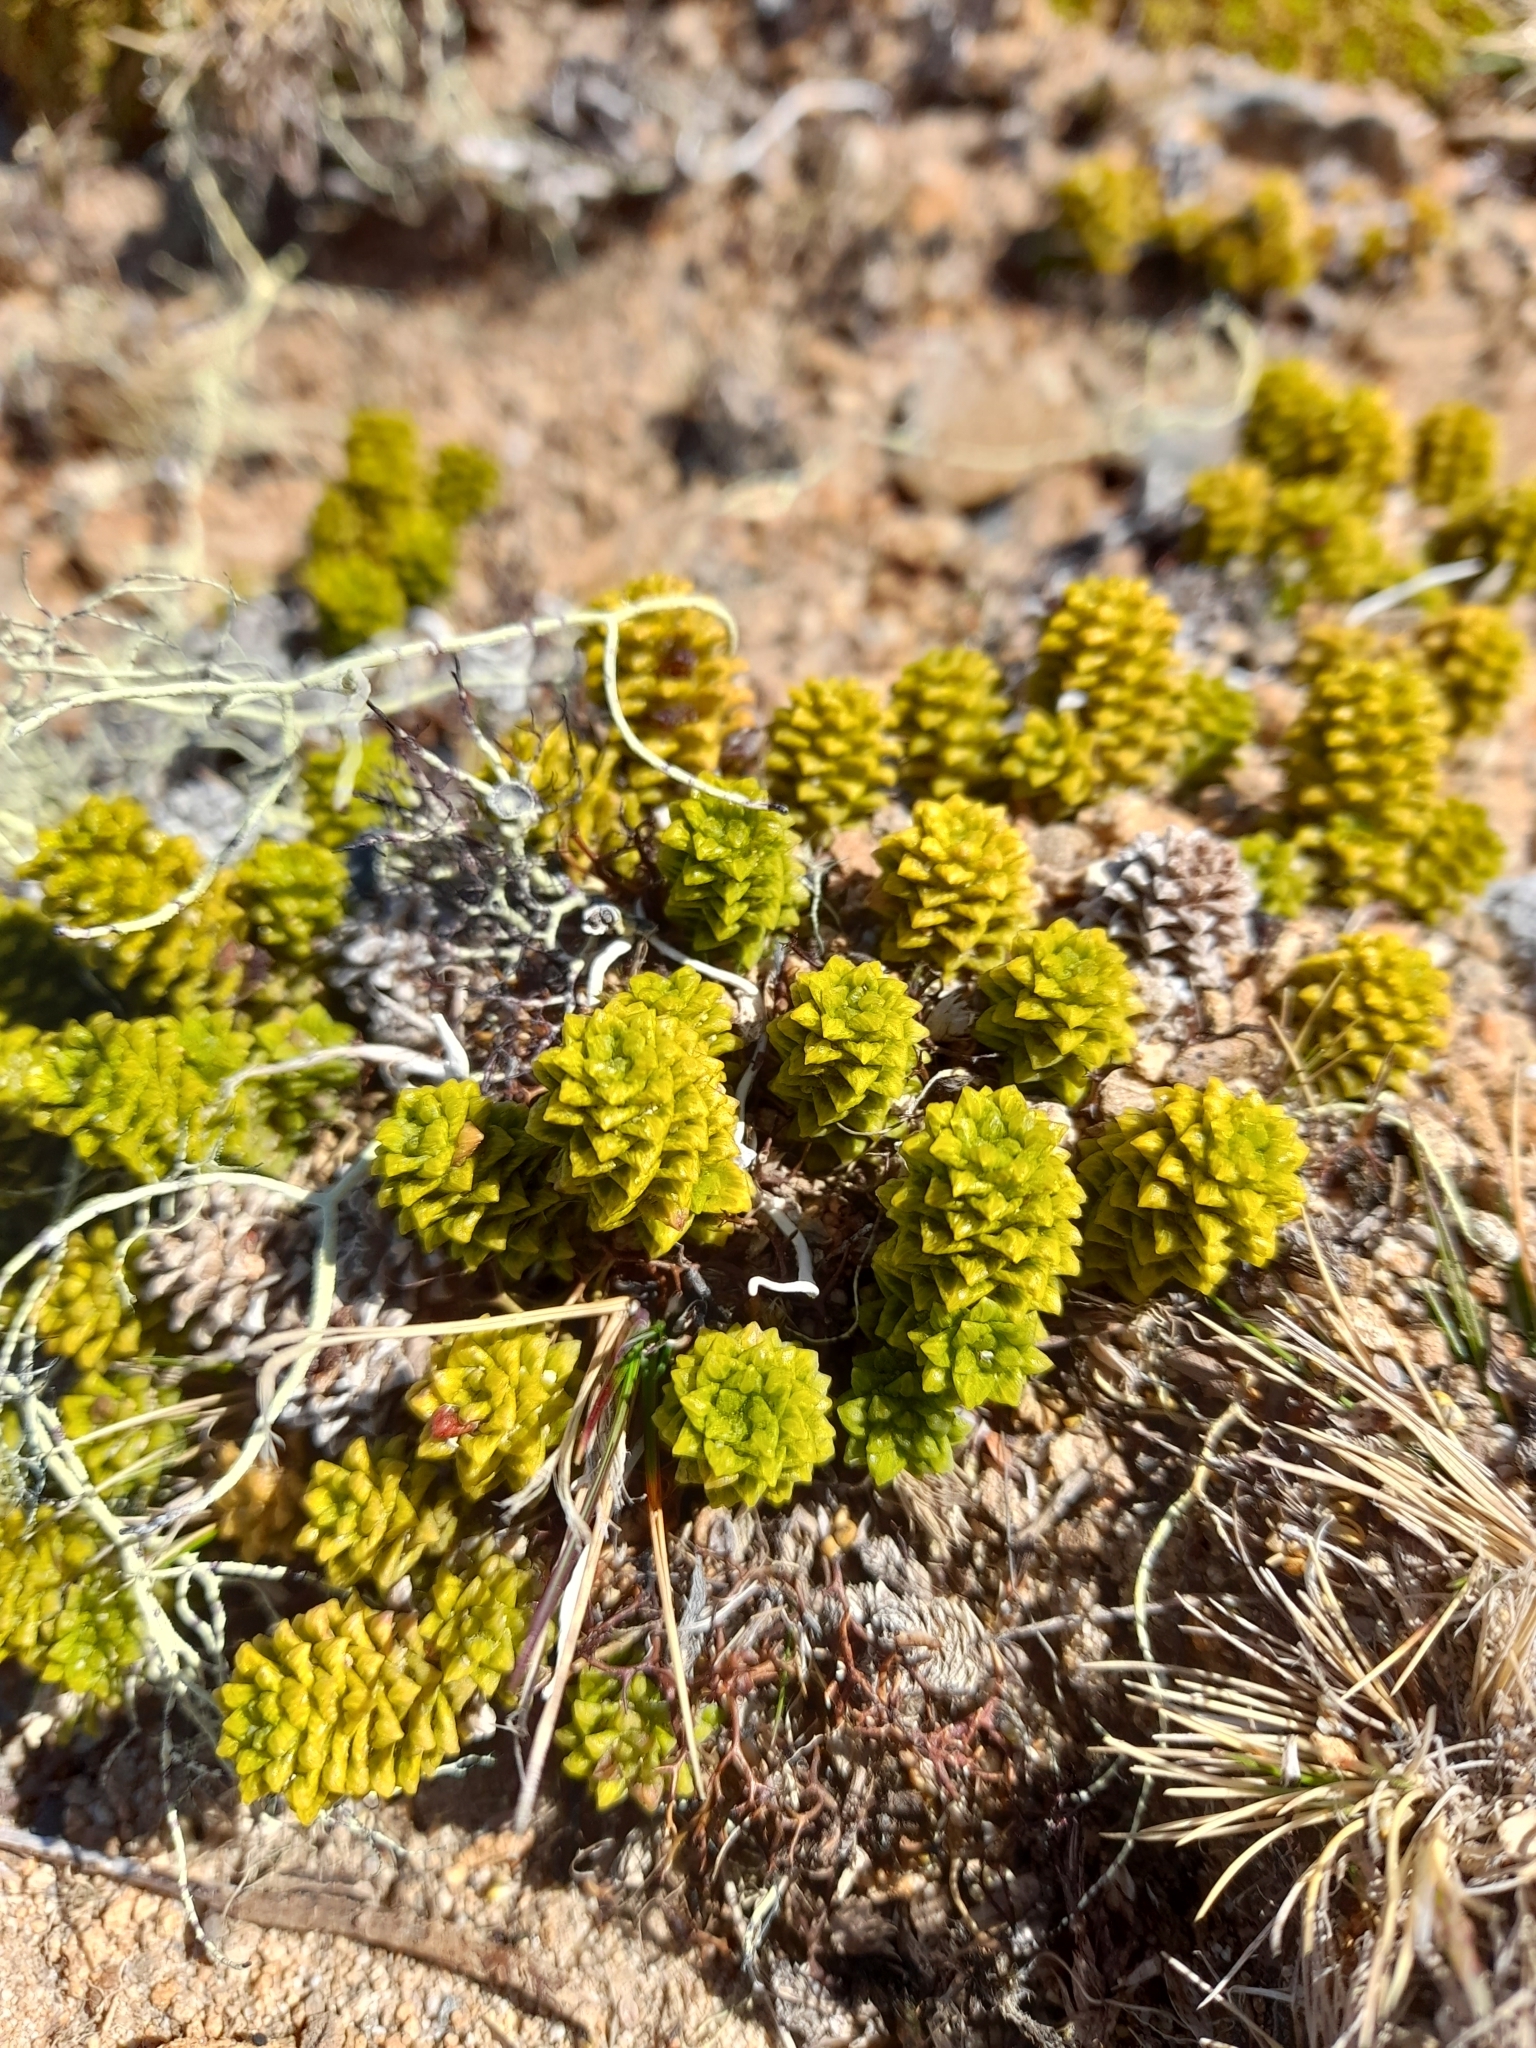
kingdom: Plantae
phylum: Tracheophyta
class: Magnoliopsida
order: Asterales
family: Asteraceae
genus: Nassauvia
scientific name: Nassauvia falklandica
